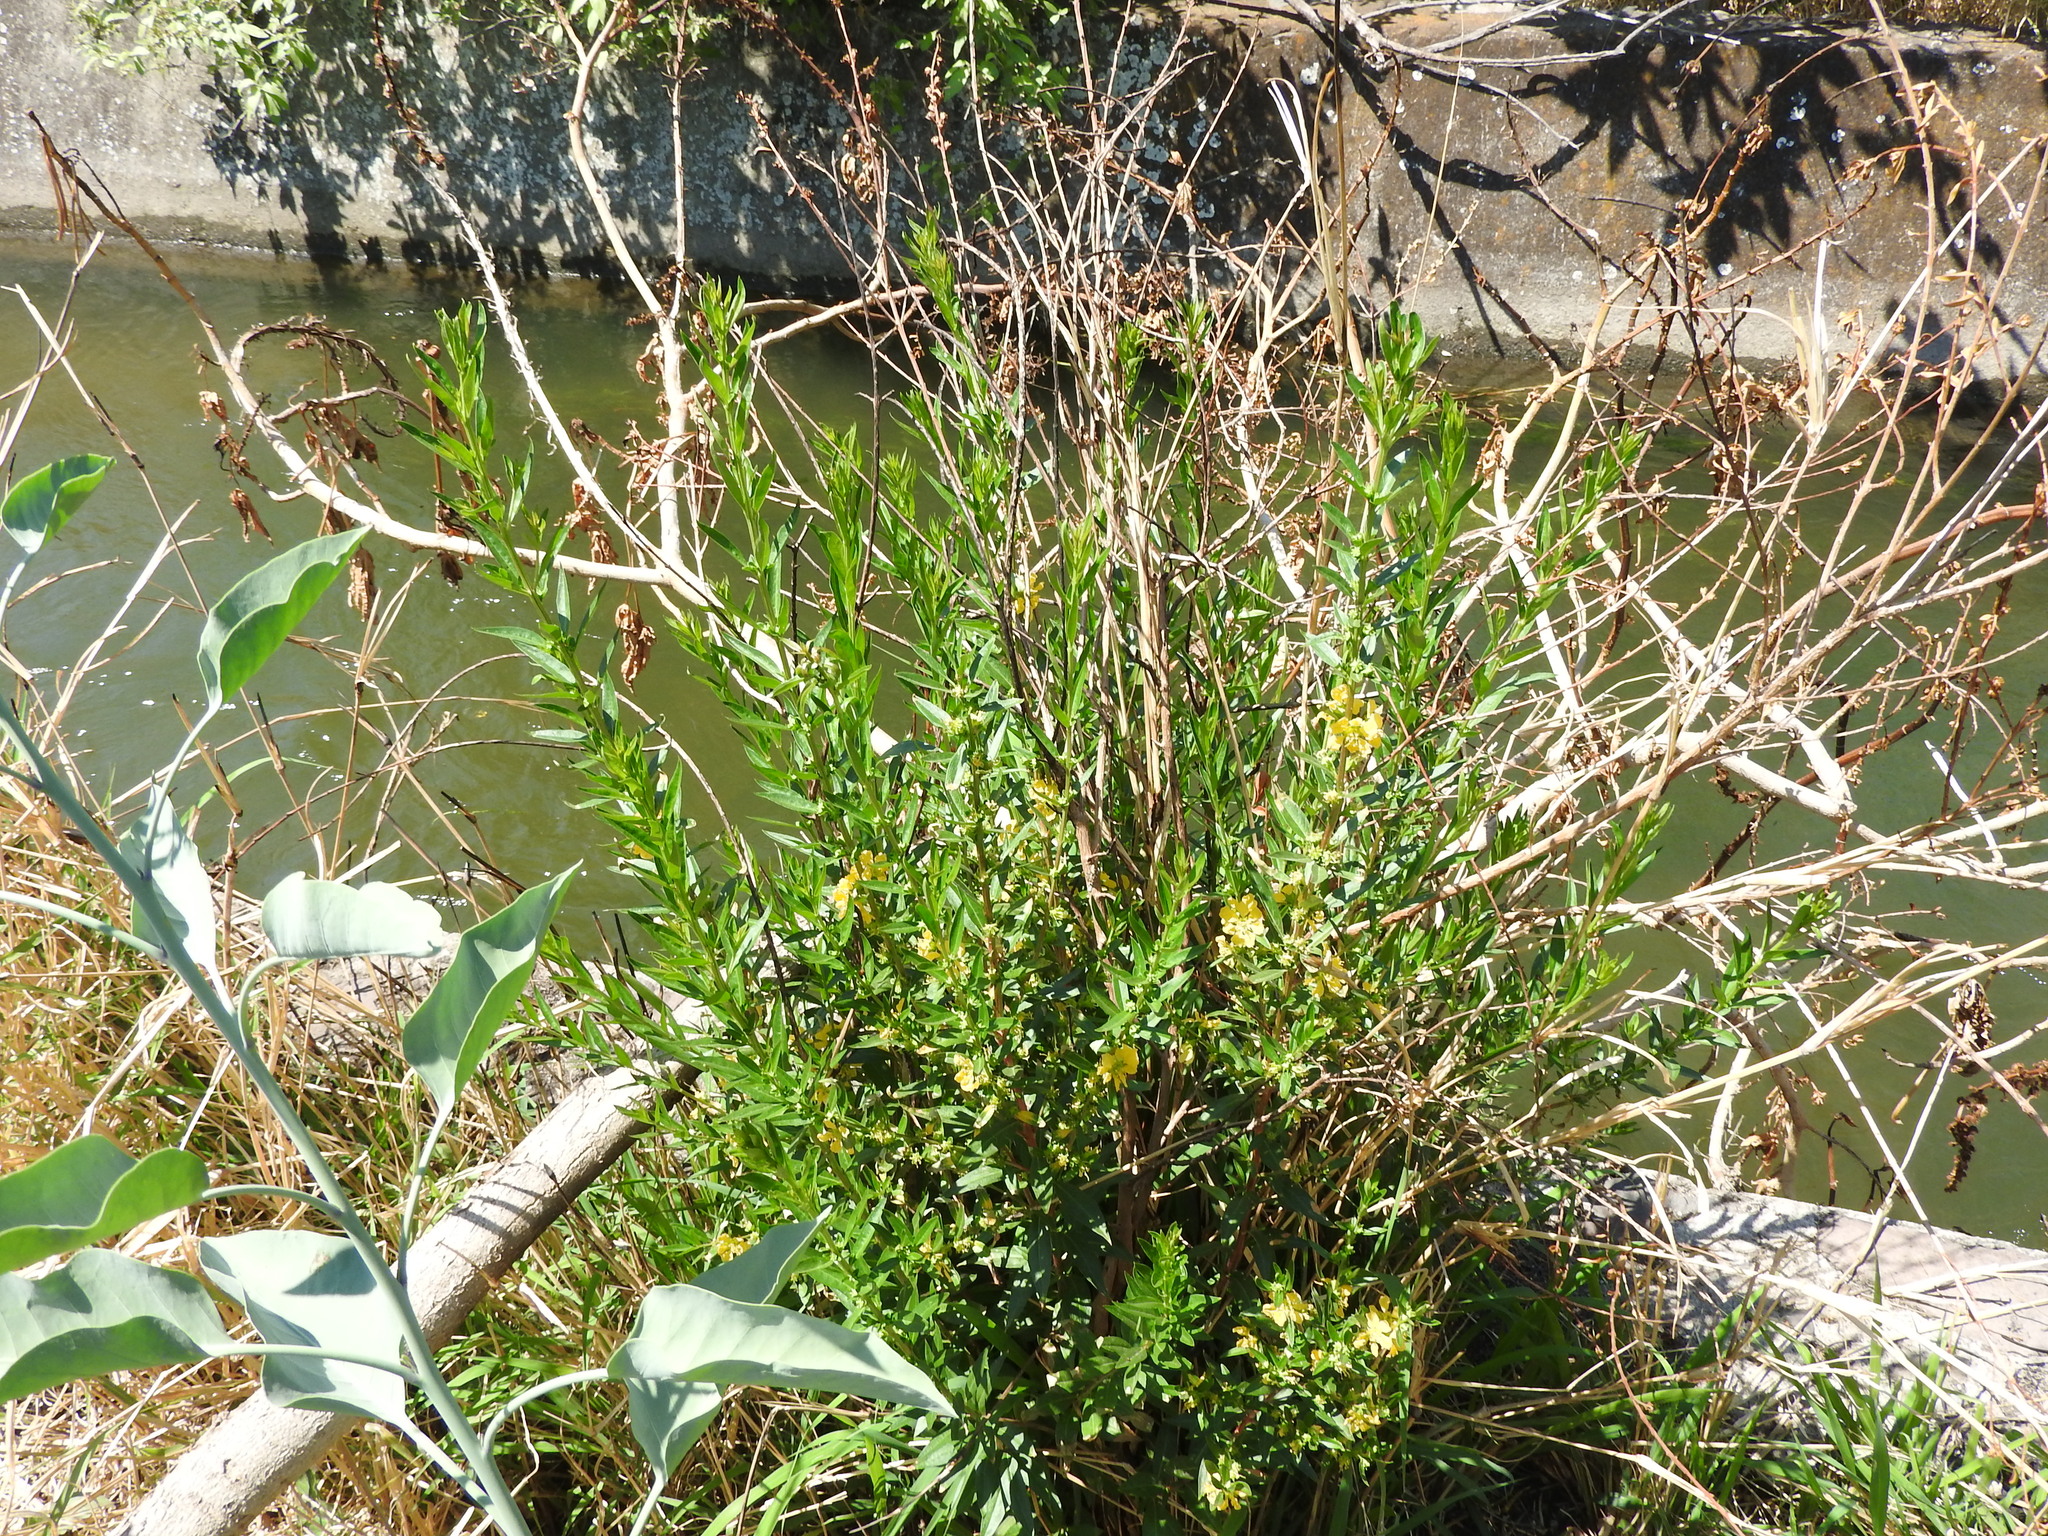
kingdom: Plantae
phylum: Tracheophyta
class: Magnoliopsida
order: Myrtales
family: Lythraceae
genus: Heimia
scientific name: Heimia salicifolia
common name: Willow-leaf heimia
